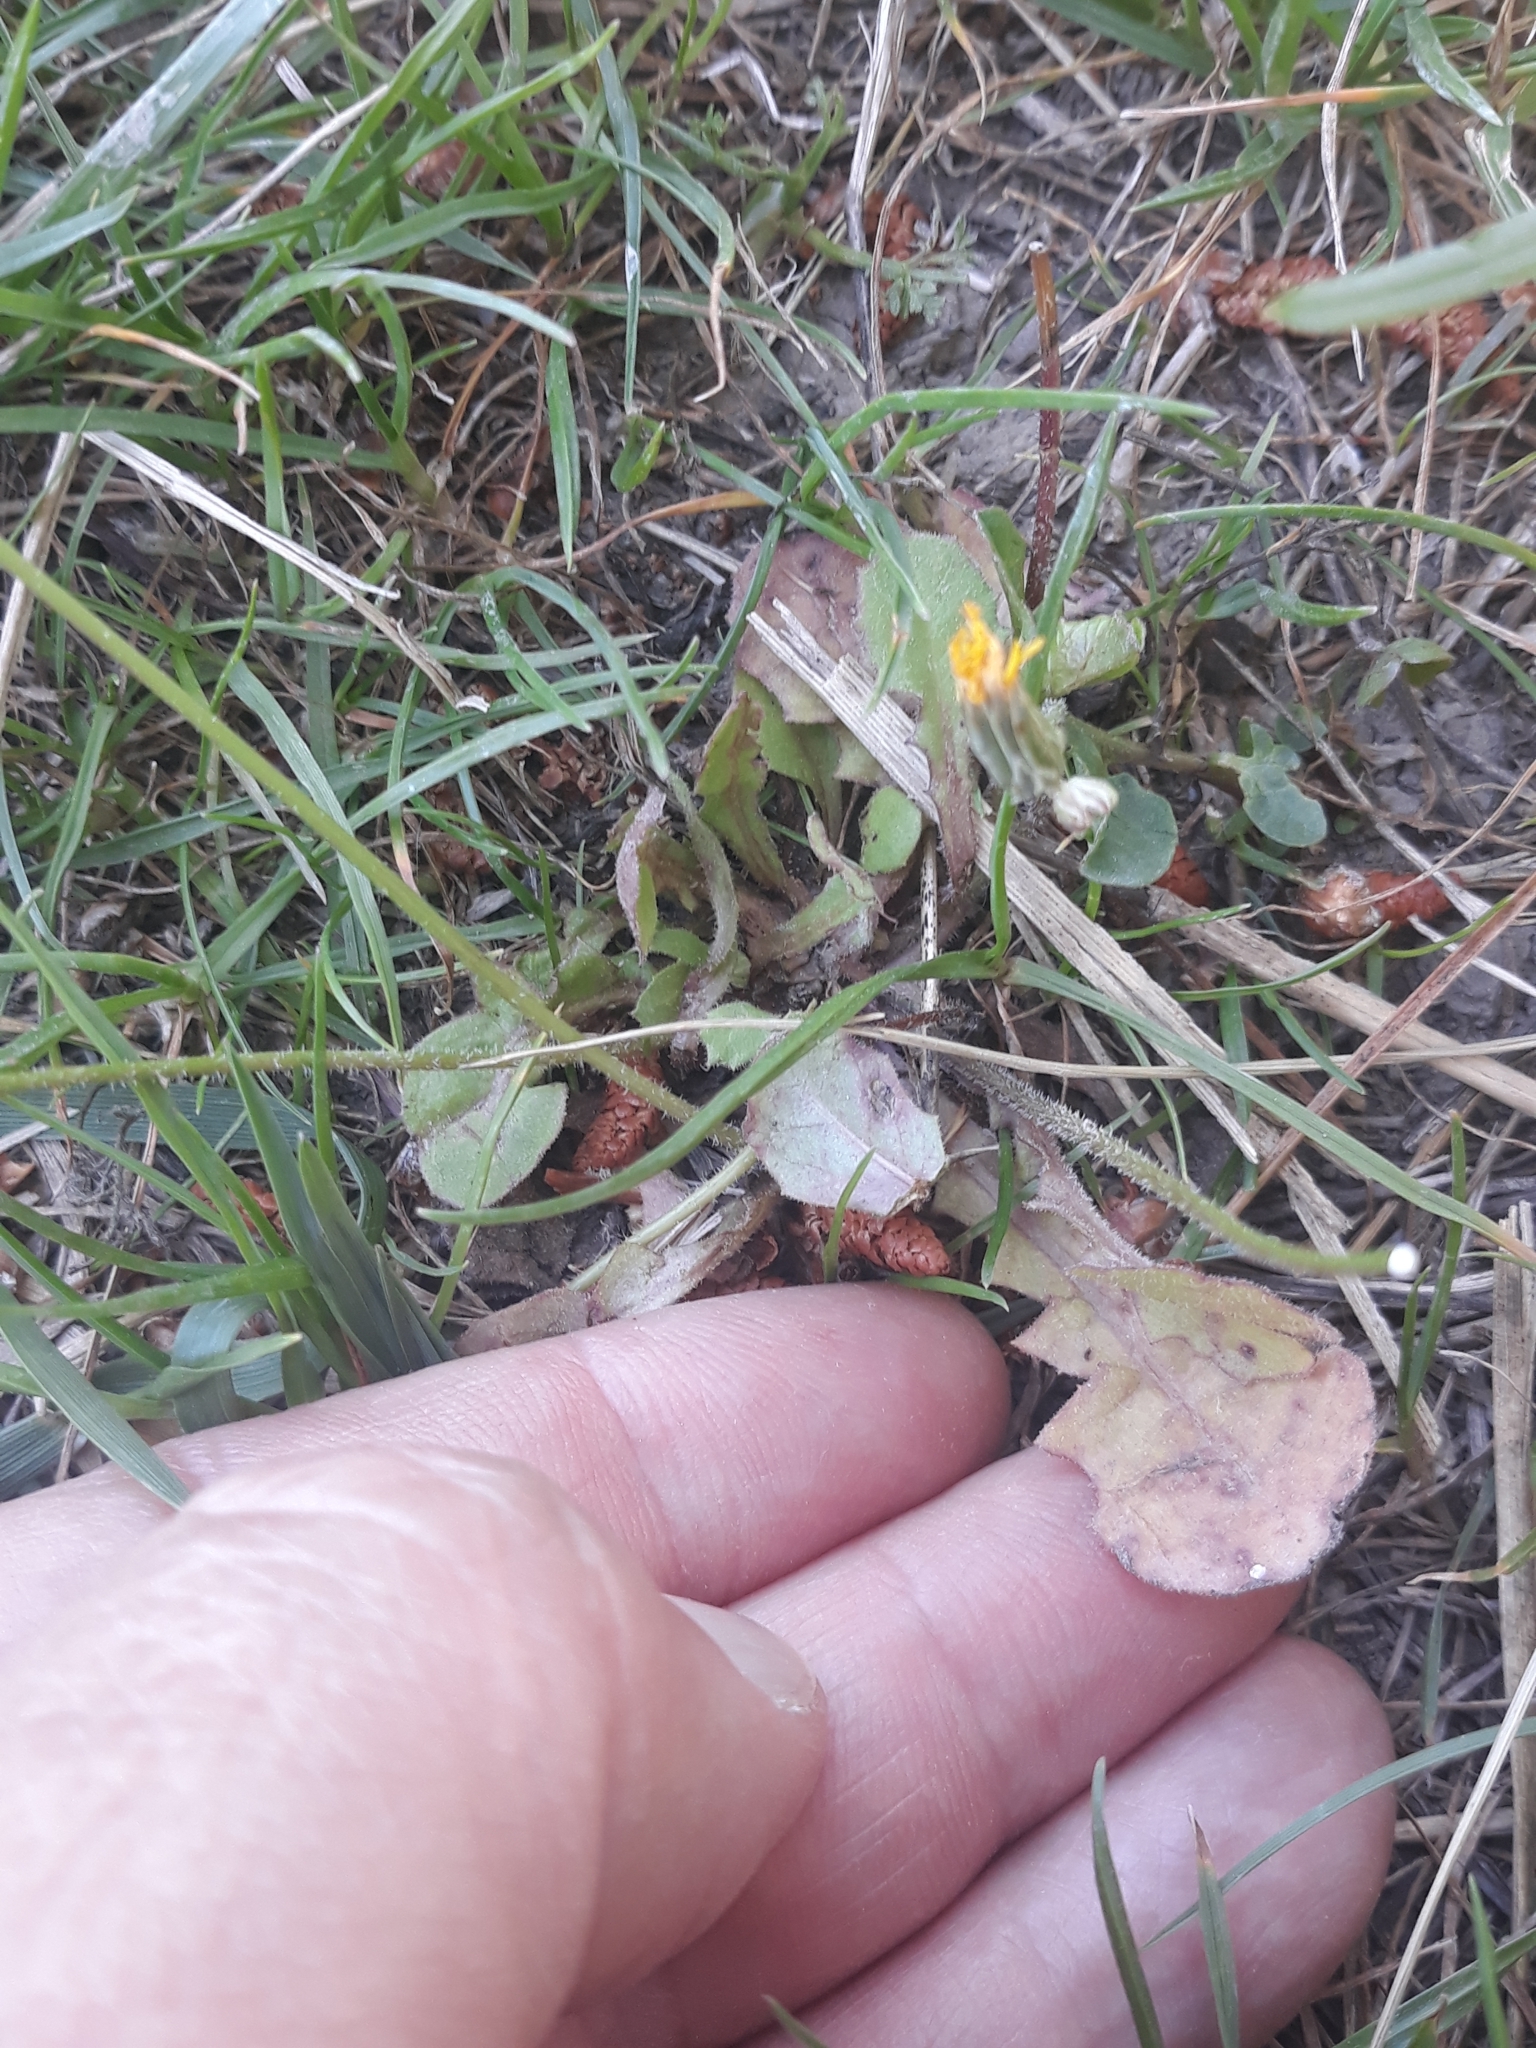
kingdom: Plantae
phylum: Tracheophyta
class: Magnoliopsida
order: Asterales
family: Asteraceae
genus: Crepis
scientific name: Crepis sancta
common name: Hawk's-beard
